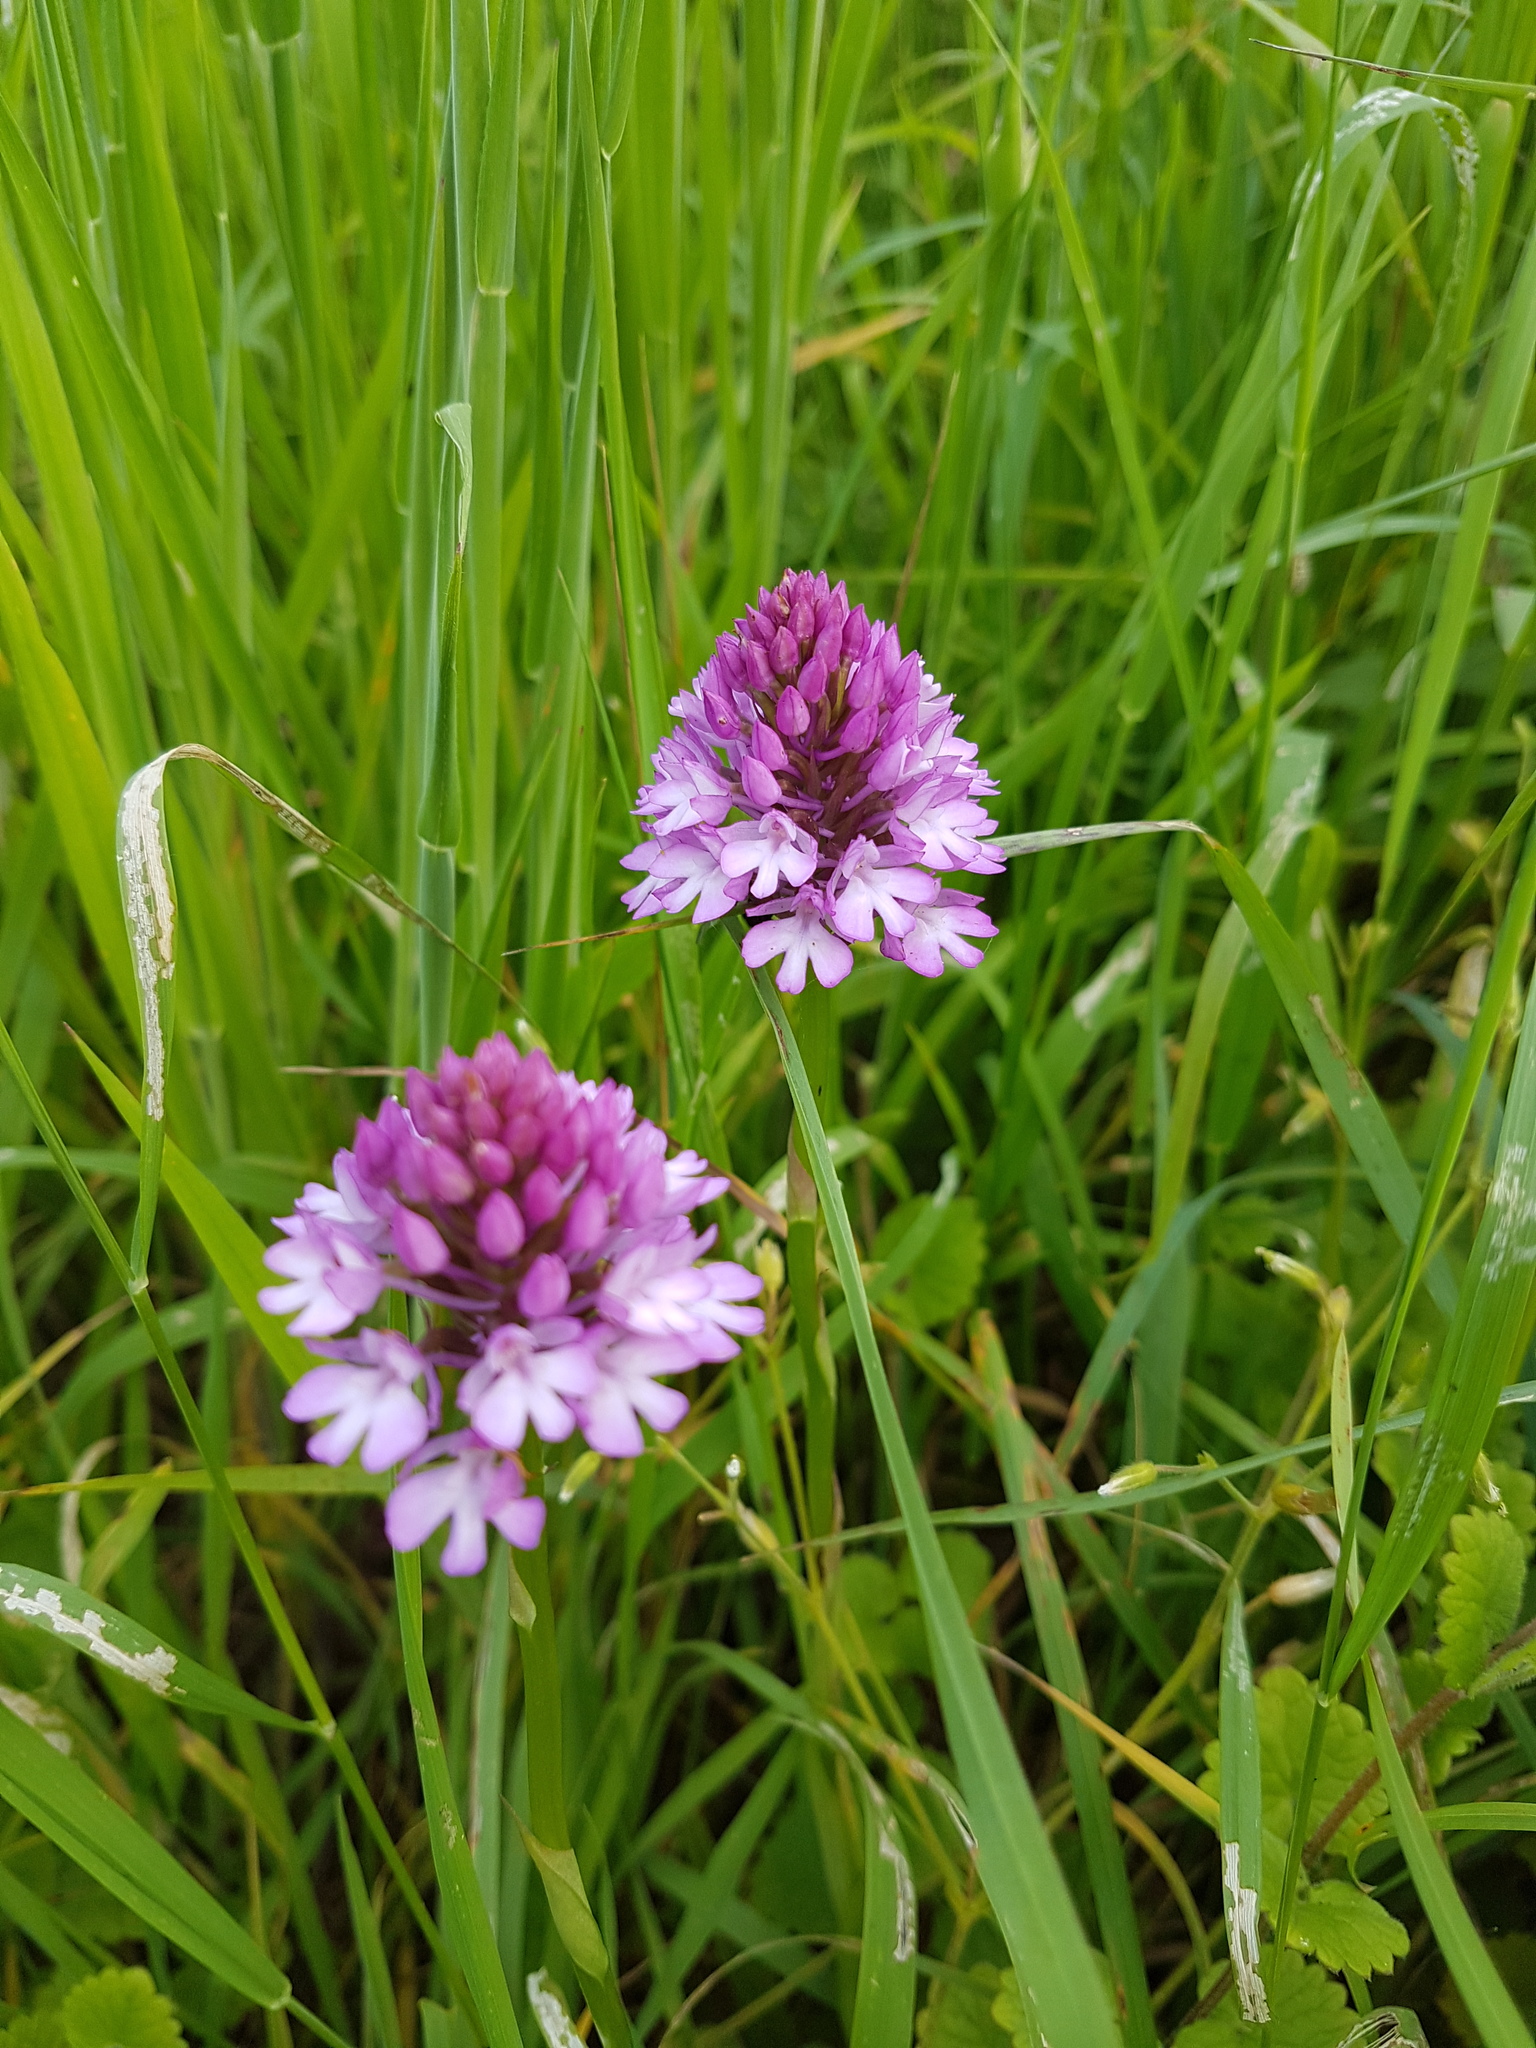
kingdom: Plantae
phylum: Tracheophyta
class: Liliopsida
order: Asparagales
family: Orchidaceae
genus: Anacamptis
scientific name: Anacamptis pyramidalis
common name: Pyramidal orchid
